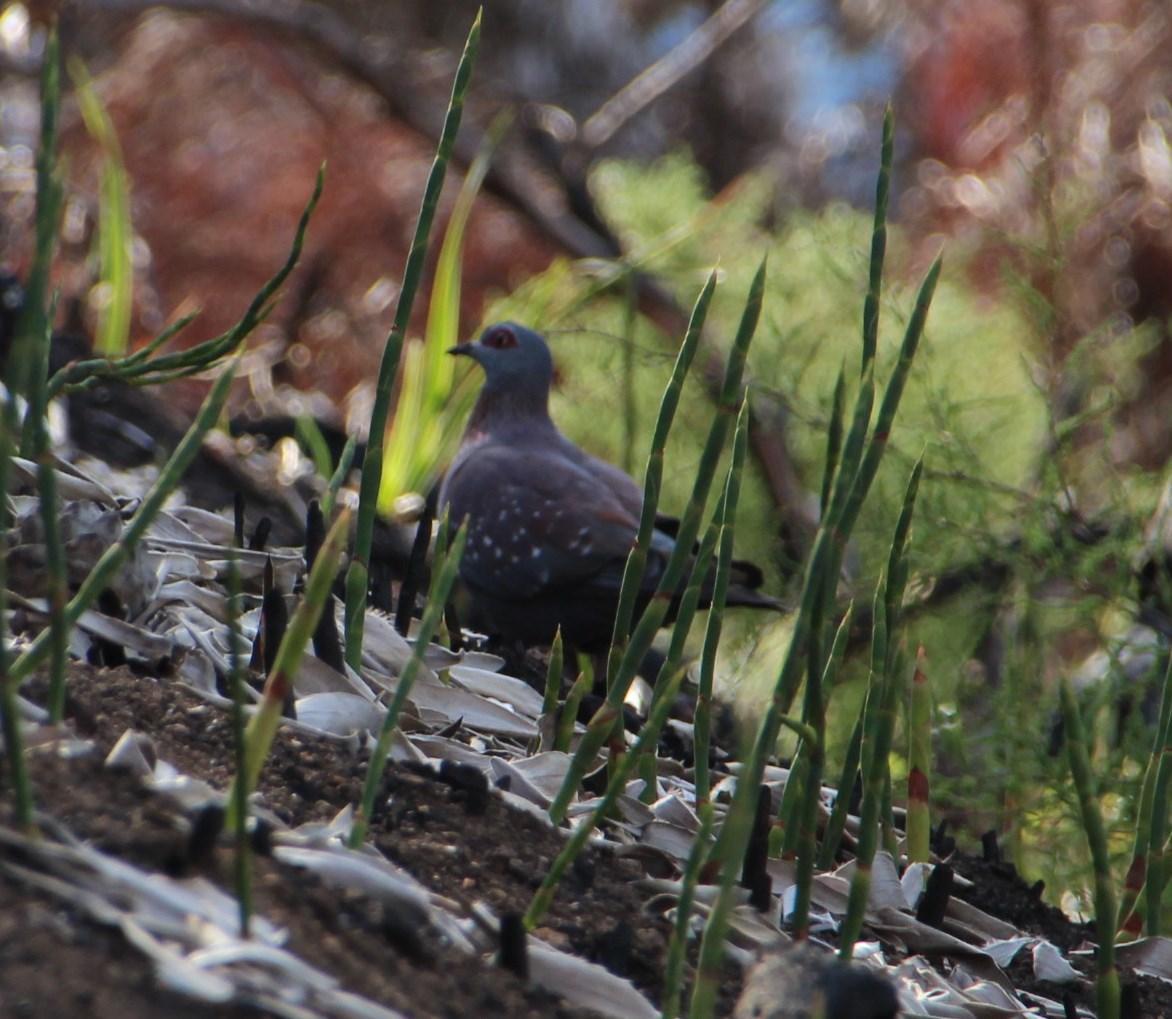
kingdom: Animalia
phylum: Chordata
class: Aves
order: Columbiformes
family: Columbidae
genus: Columba
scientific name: Columba guinea
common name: Speckled pigeon
